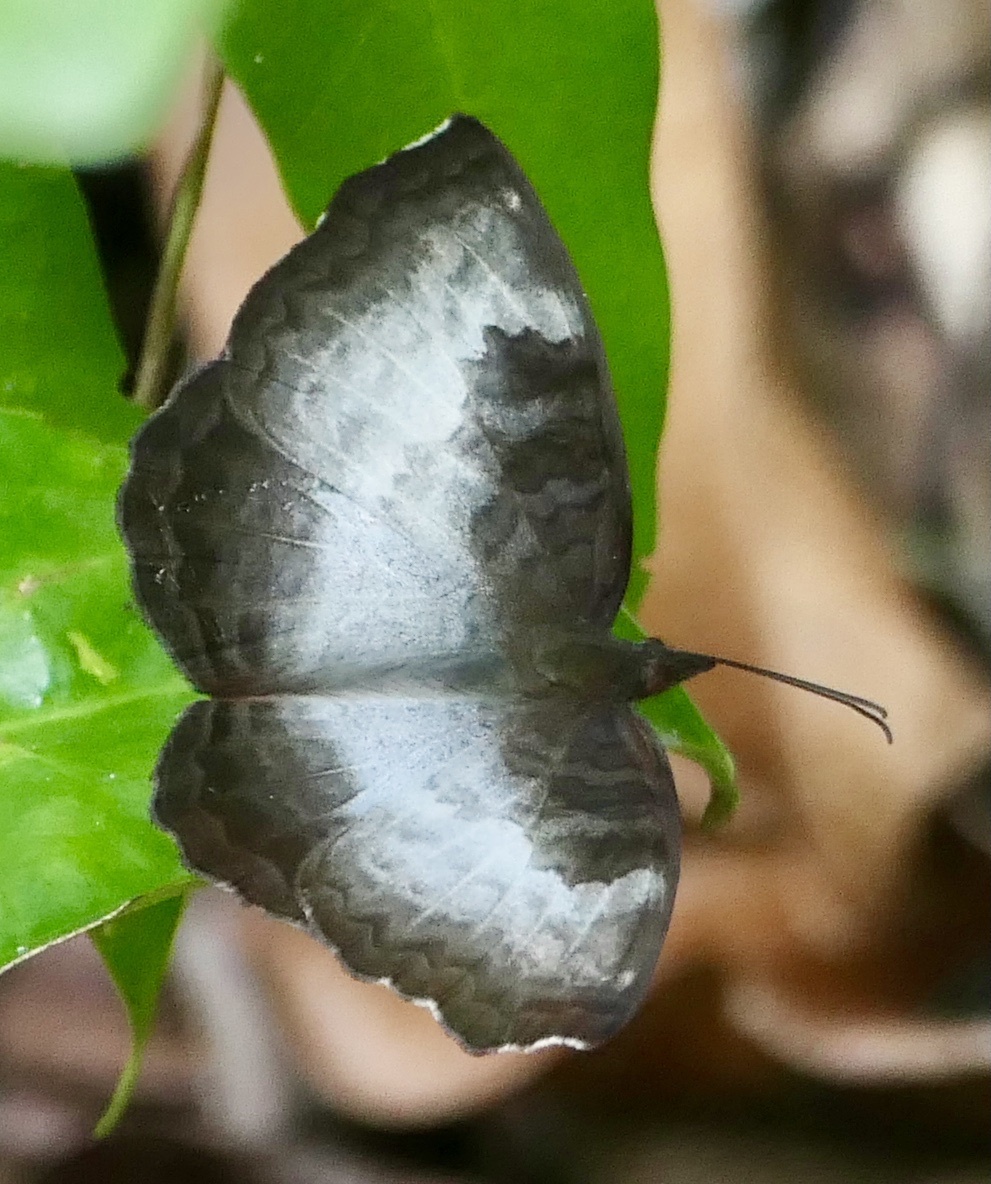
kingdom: Animalia
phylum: Arthropoda
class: Insecta
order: Lepidoptera
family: Nymphalidae
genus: Ariadne
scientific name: Ariadne enotrea
